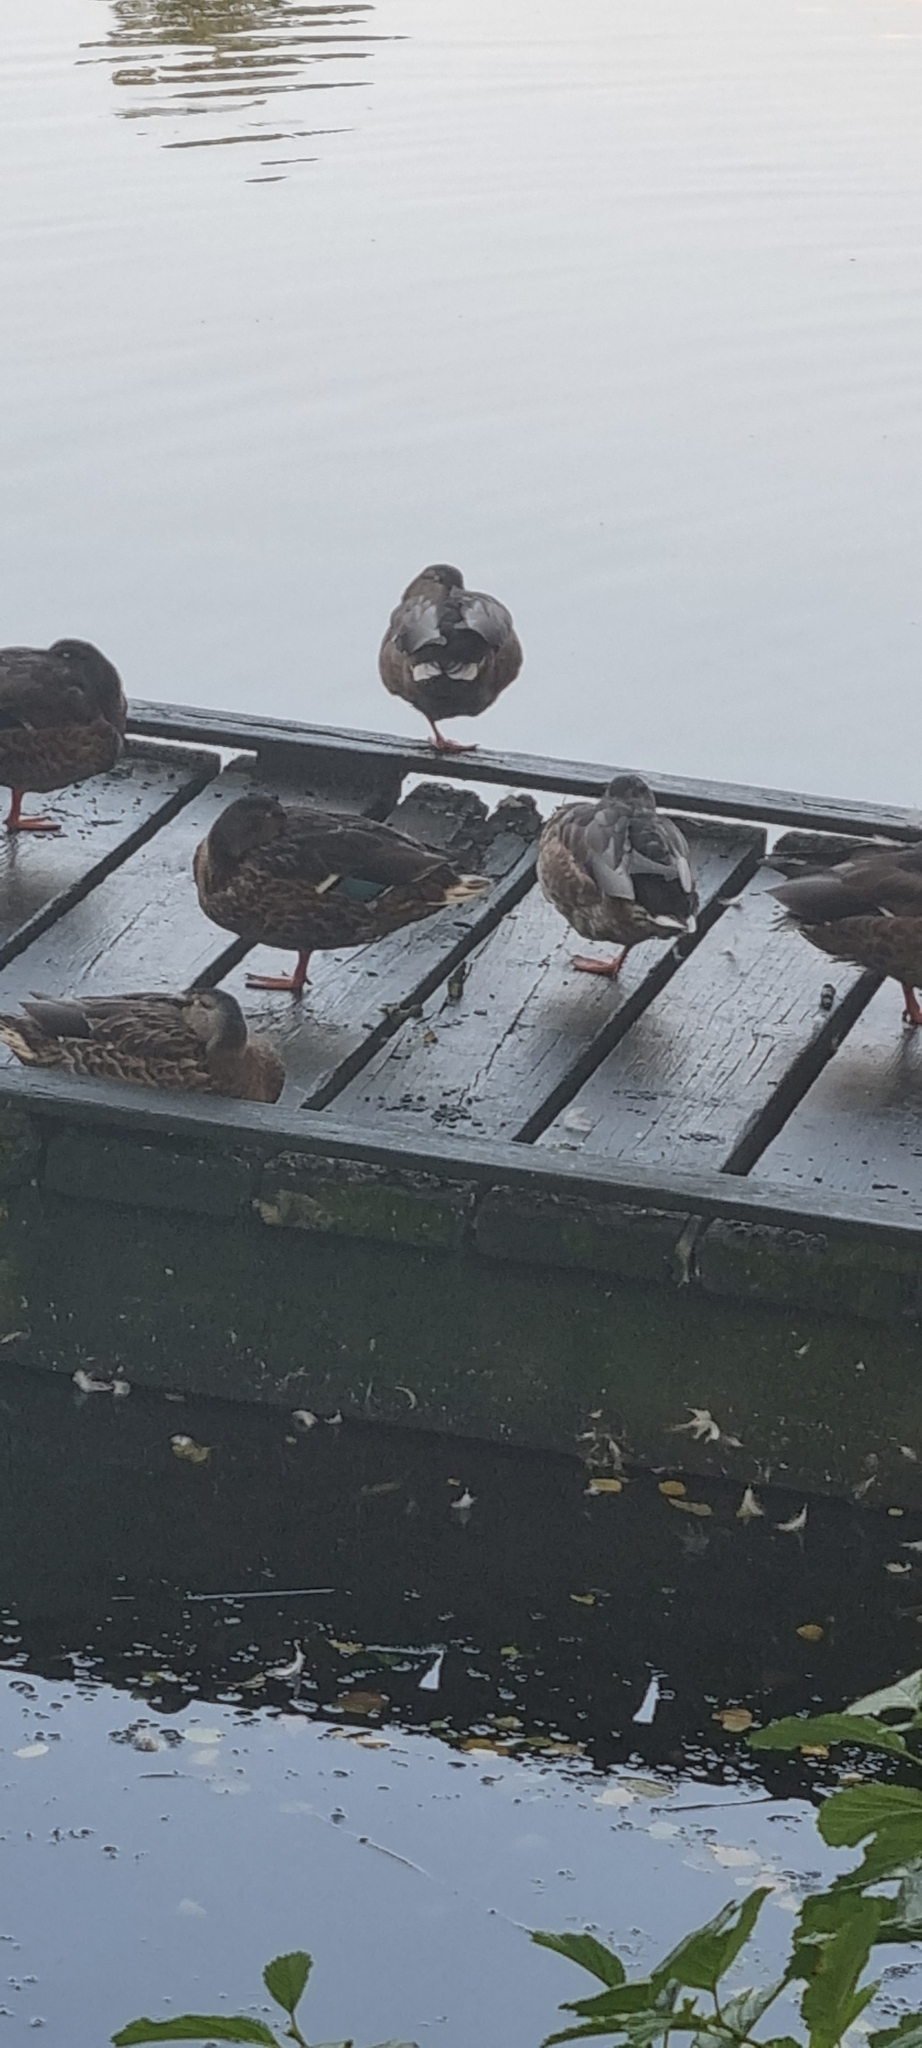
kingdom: Animalia
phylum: Chordata
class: Aves
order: Anseriformes
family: Anatidae
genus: Anas
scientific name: Anas platyrhynchos
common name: Mallard
